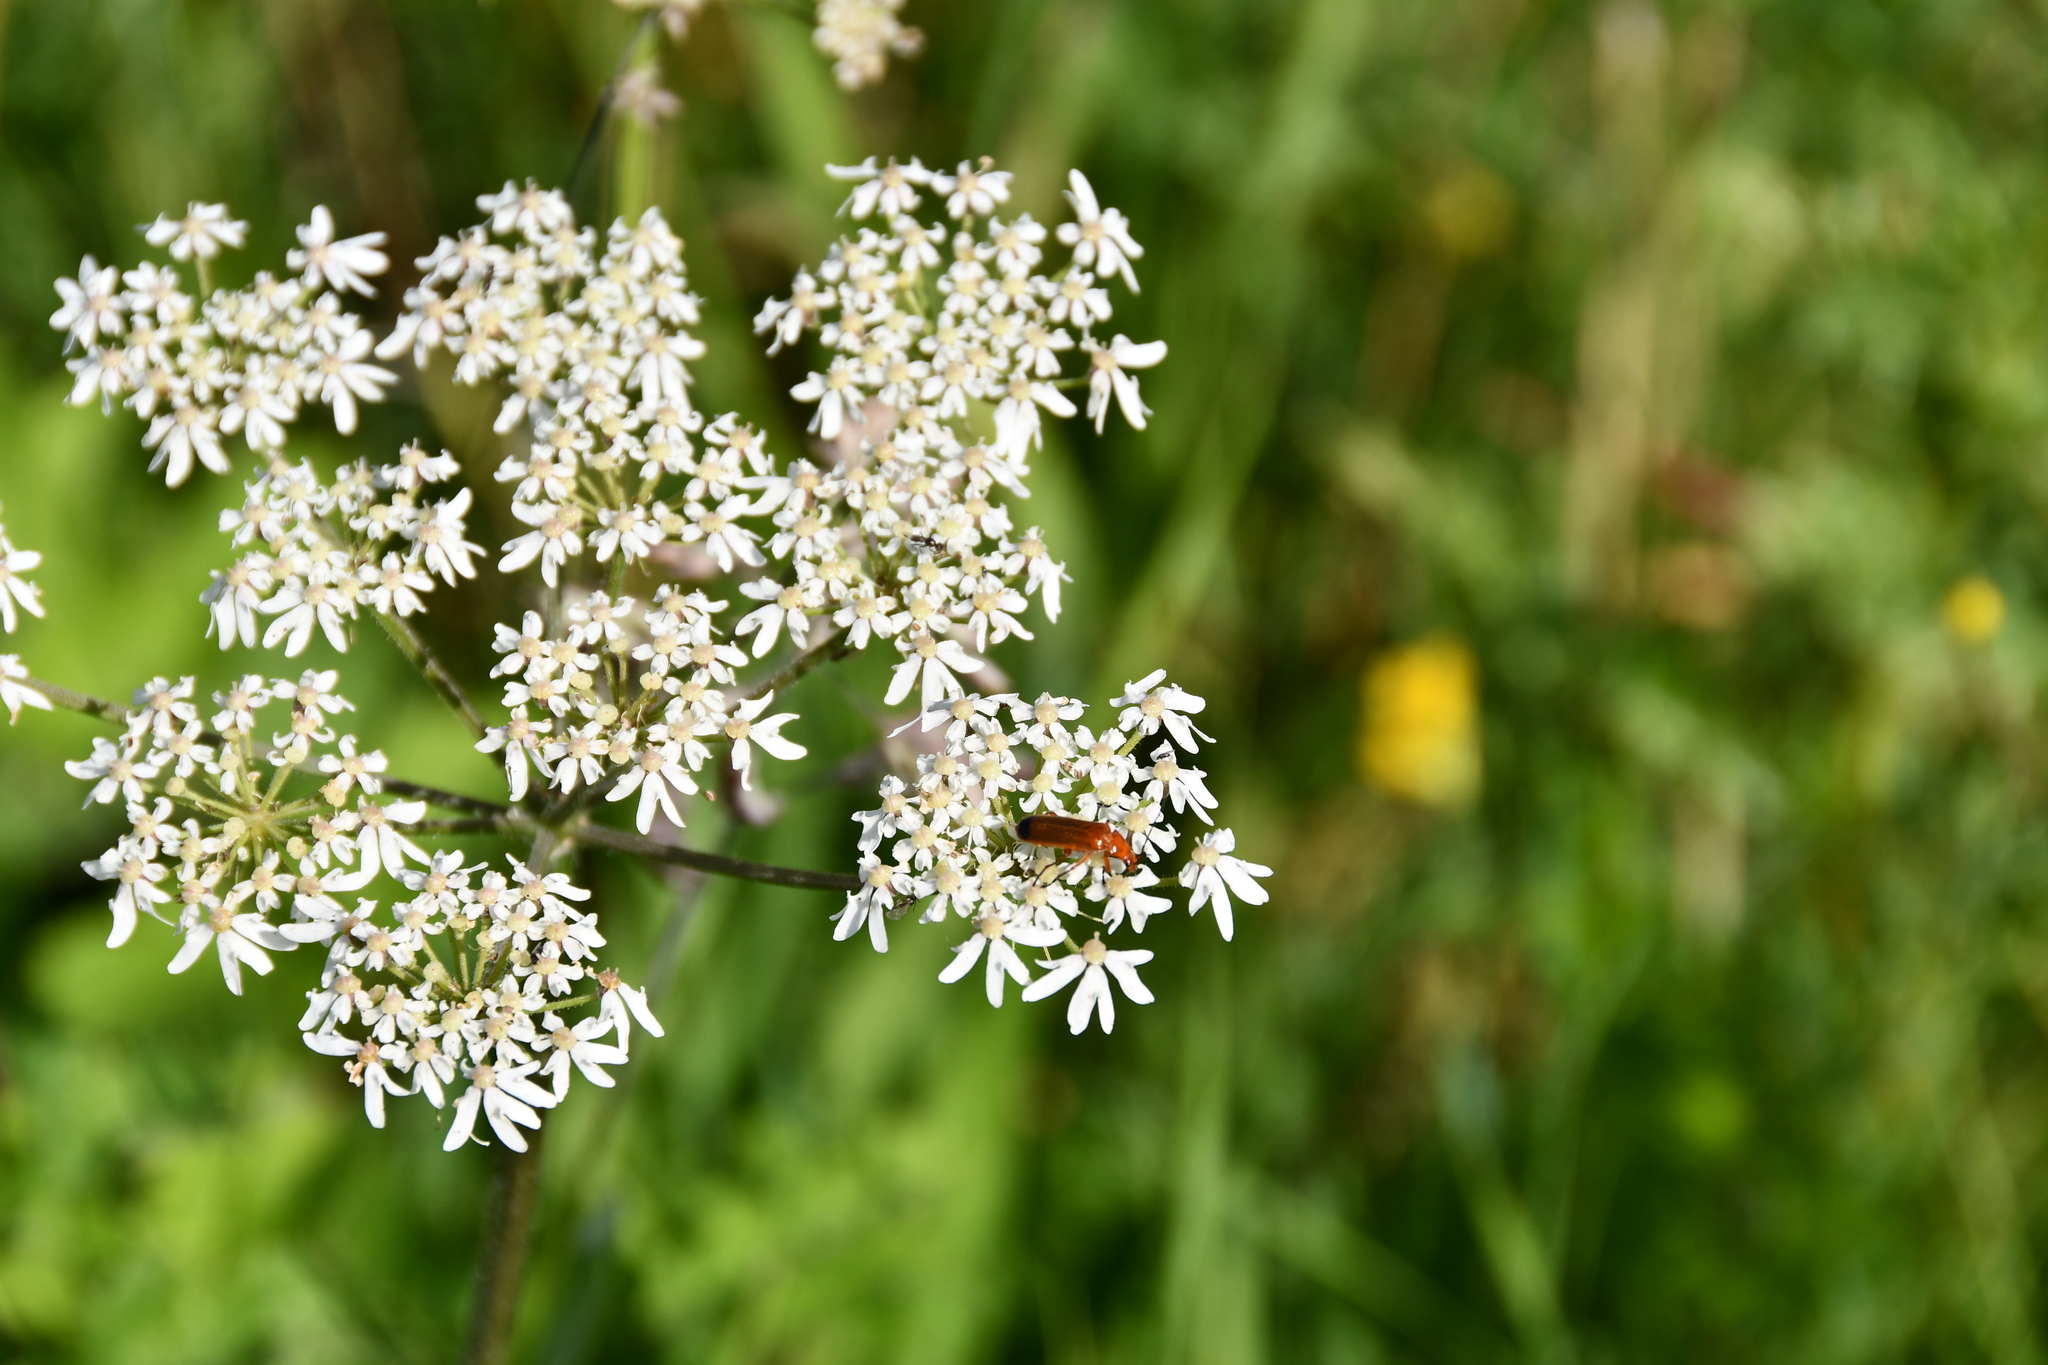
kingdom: Animalia
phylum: Arthropoda
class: Insecta
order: Coleoptera
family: Cantharidae
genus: Rhagonycha
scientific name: Rhagonycha fulva
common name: Common red soldier beetle
